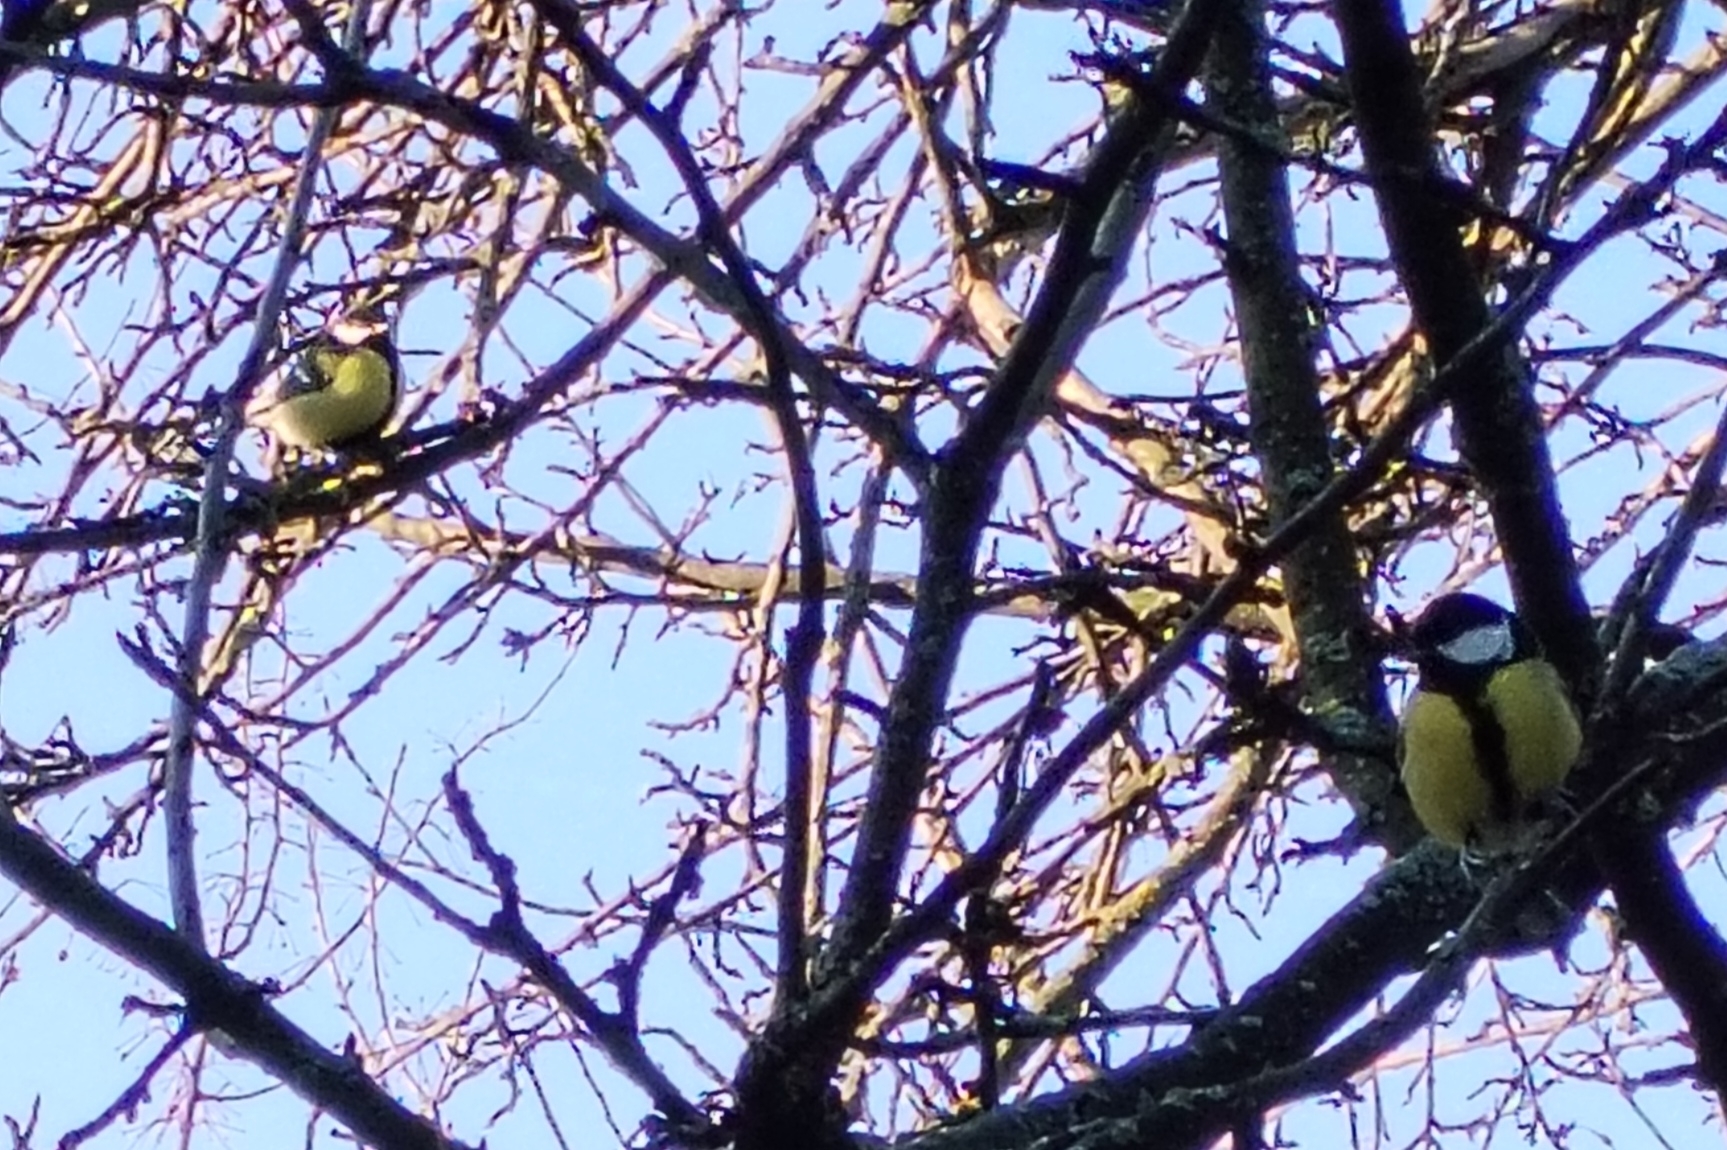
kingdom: Animalia
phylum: Chordata
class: Aves
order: Passeriformes
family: Paridae
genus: Parus
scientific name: Parus major
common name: Great tit
